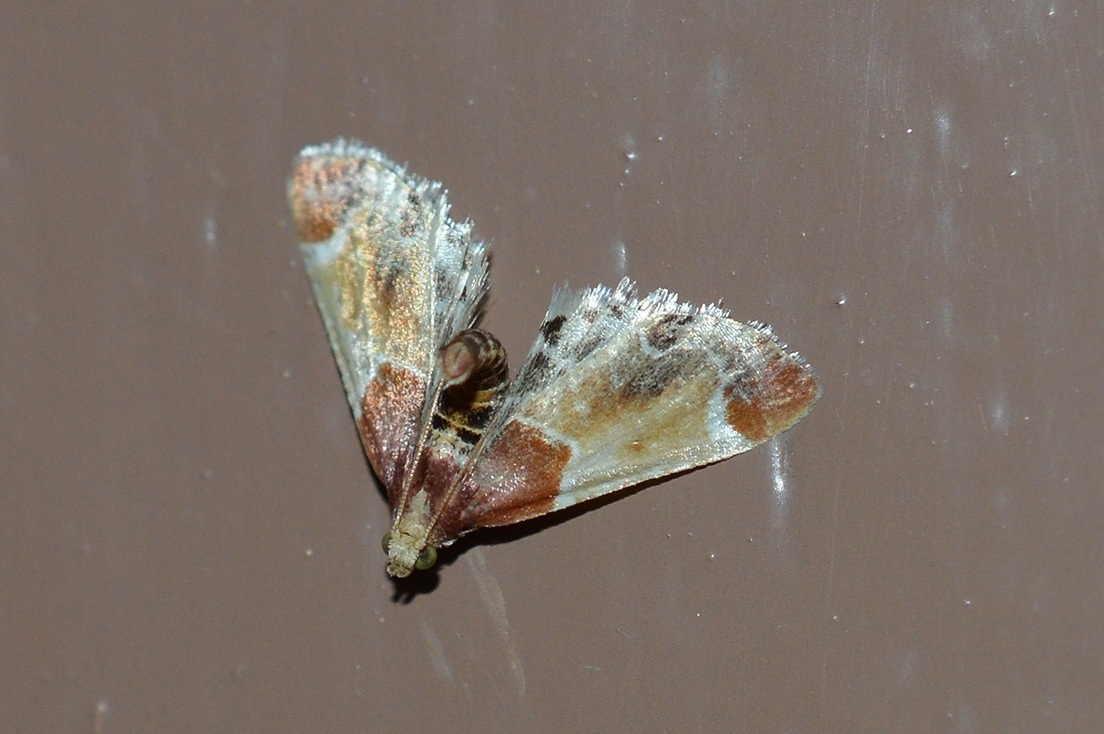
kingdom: Animalia
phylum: Arthropoda
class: Insecta
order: Lepidoptera
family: Pyralidae
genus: Pyralis
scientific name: Pyralis farinalis
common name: Meal moth
